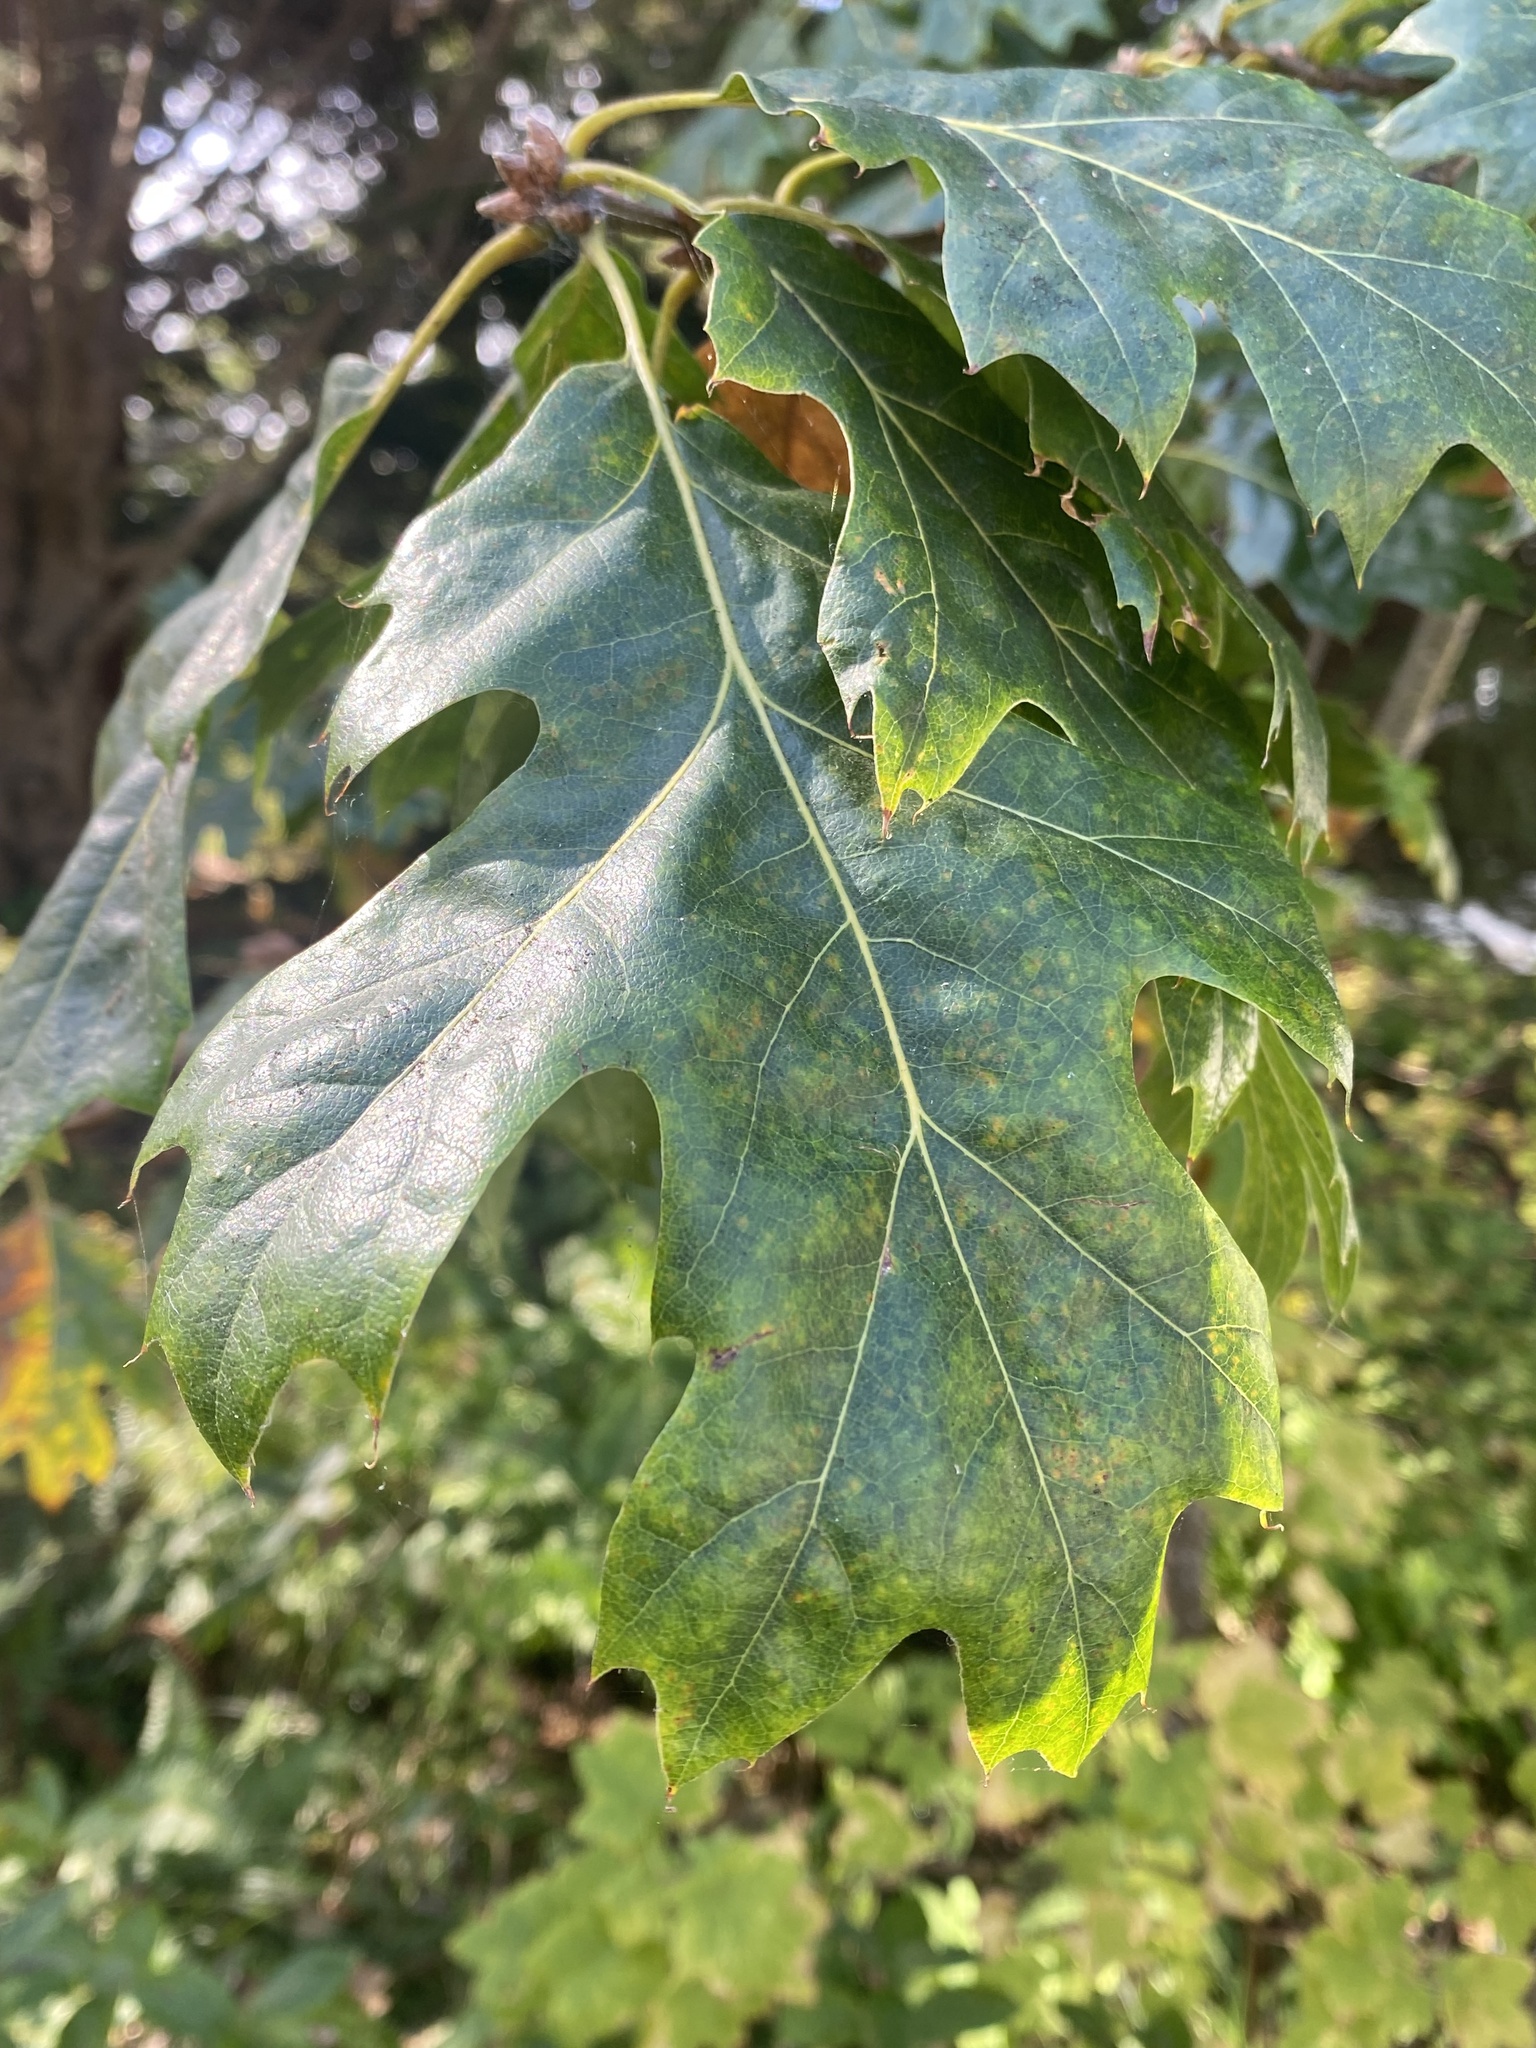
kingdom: Plantae
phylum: Tracheophyta
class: Magnoliopsida
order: Fagales
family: Fagaceae
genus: Quercus
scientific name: Quercus kelloggii
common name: California black oak
